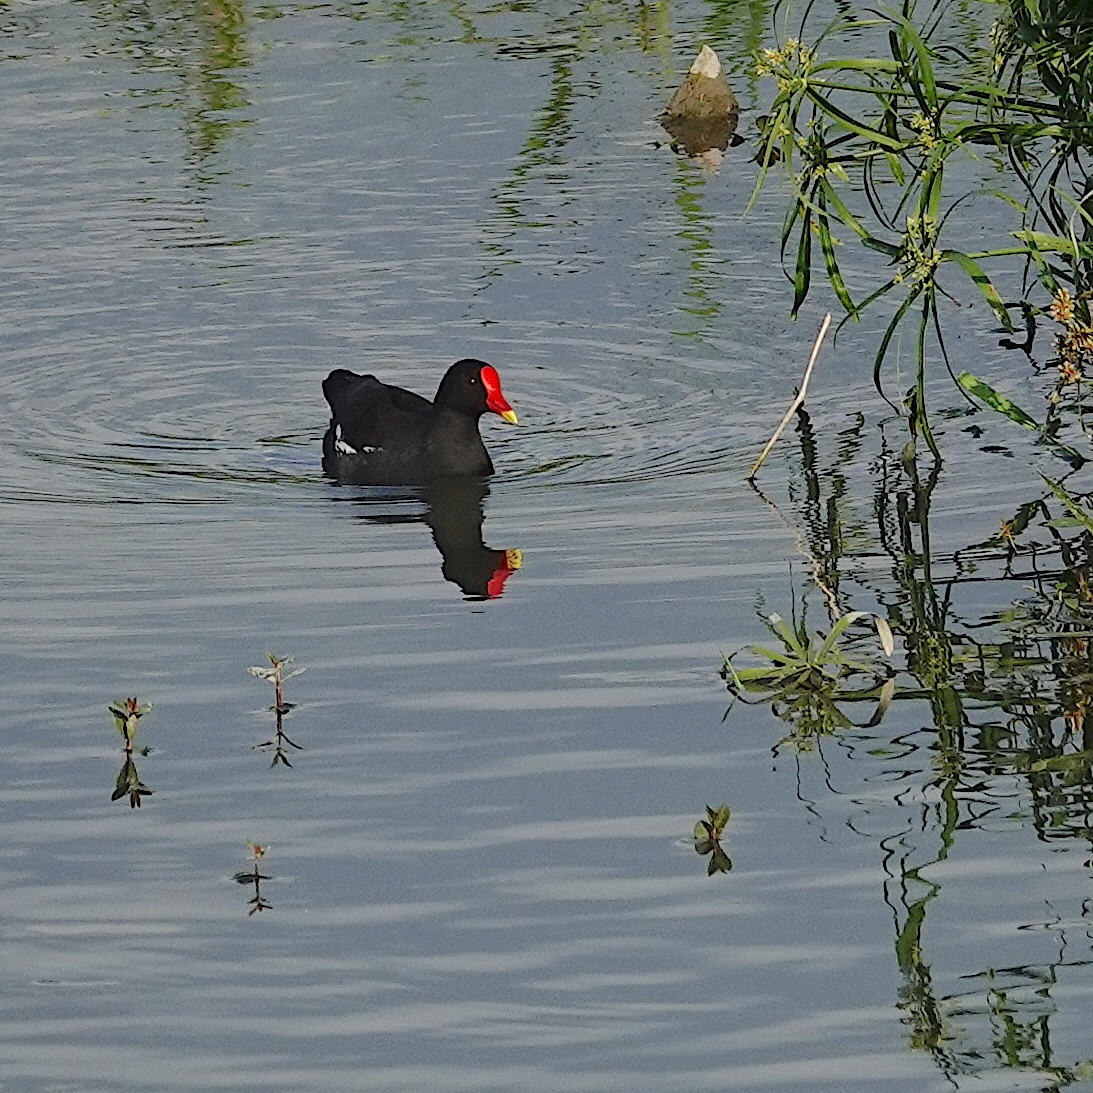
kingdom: Animalia
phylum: Chordata
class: Aves
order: Gruiformes
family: Rallidae
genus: Gallinula
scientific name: Gallinula chloropus
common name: Common moorhen
